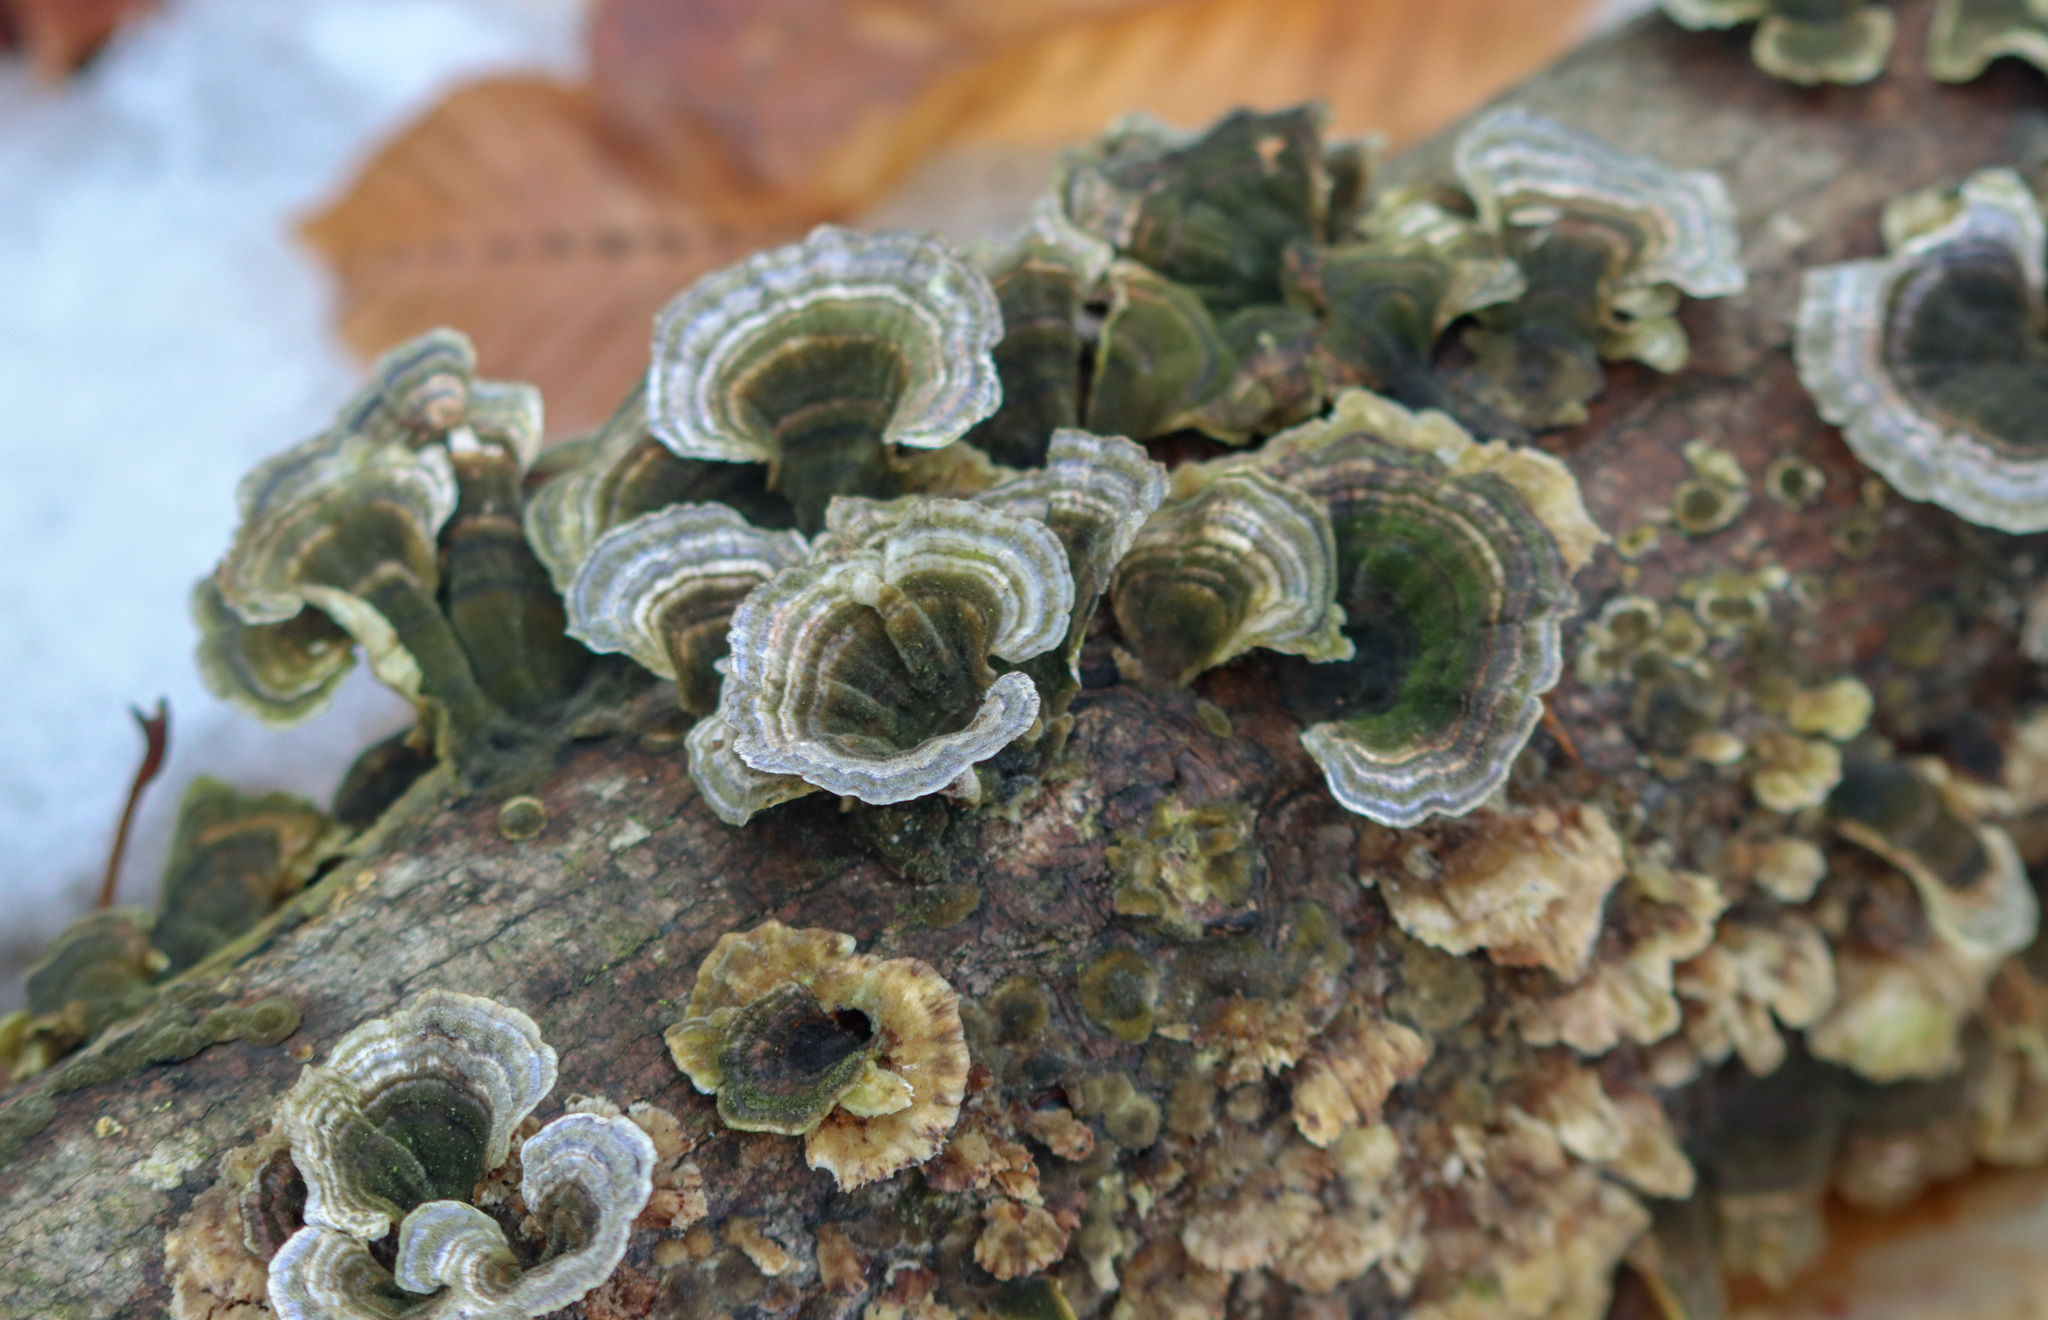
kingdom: Fungi
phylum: Basidiomycota
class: Agaricomycetes
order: Polyporales
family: Polyporaceae
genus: Trametes
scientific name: Trametes versicolor
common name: Turkeytail
